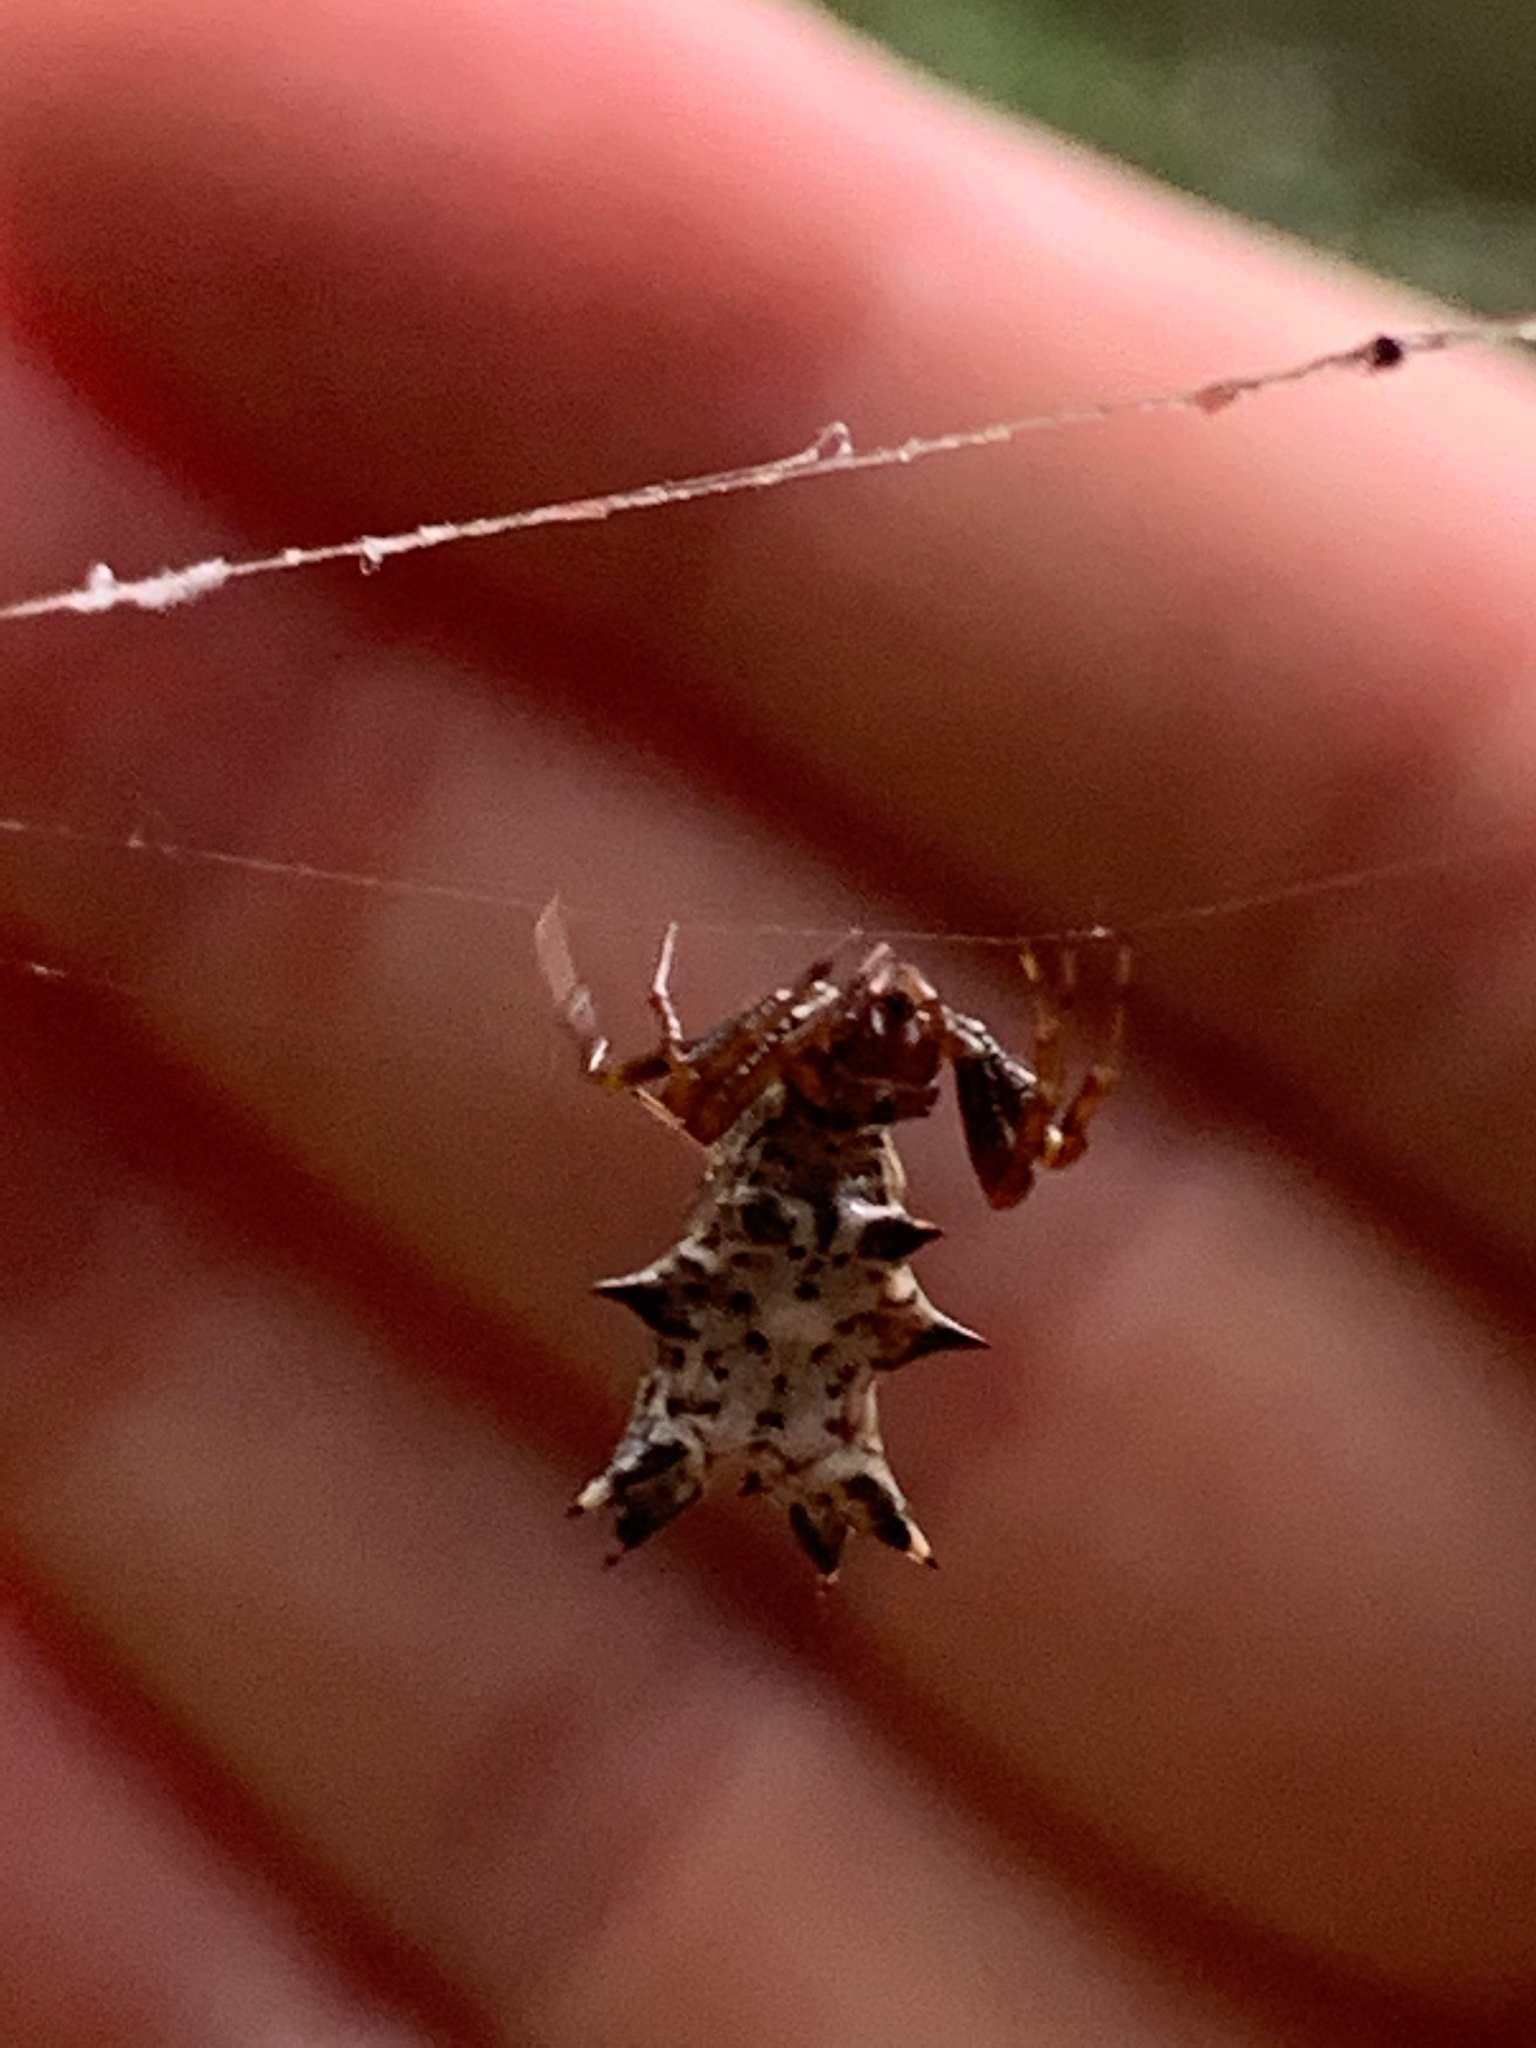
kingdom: Animalia
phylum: Arthropoda
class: Arachnida
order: Araneae
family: Araneidae
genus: Micrathena
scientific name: Micrathena gracilis
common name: Orb weavers
